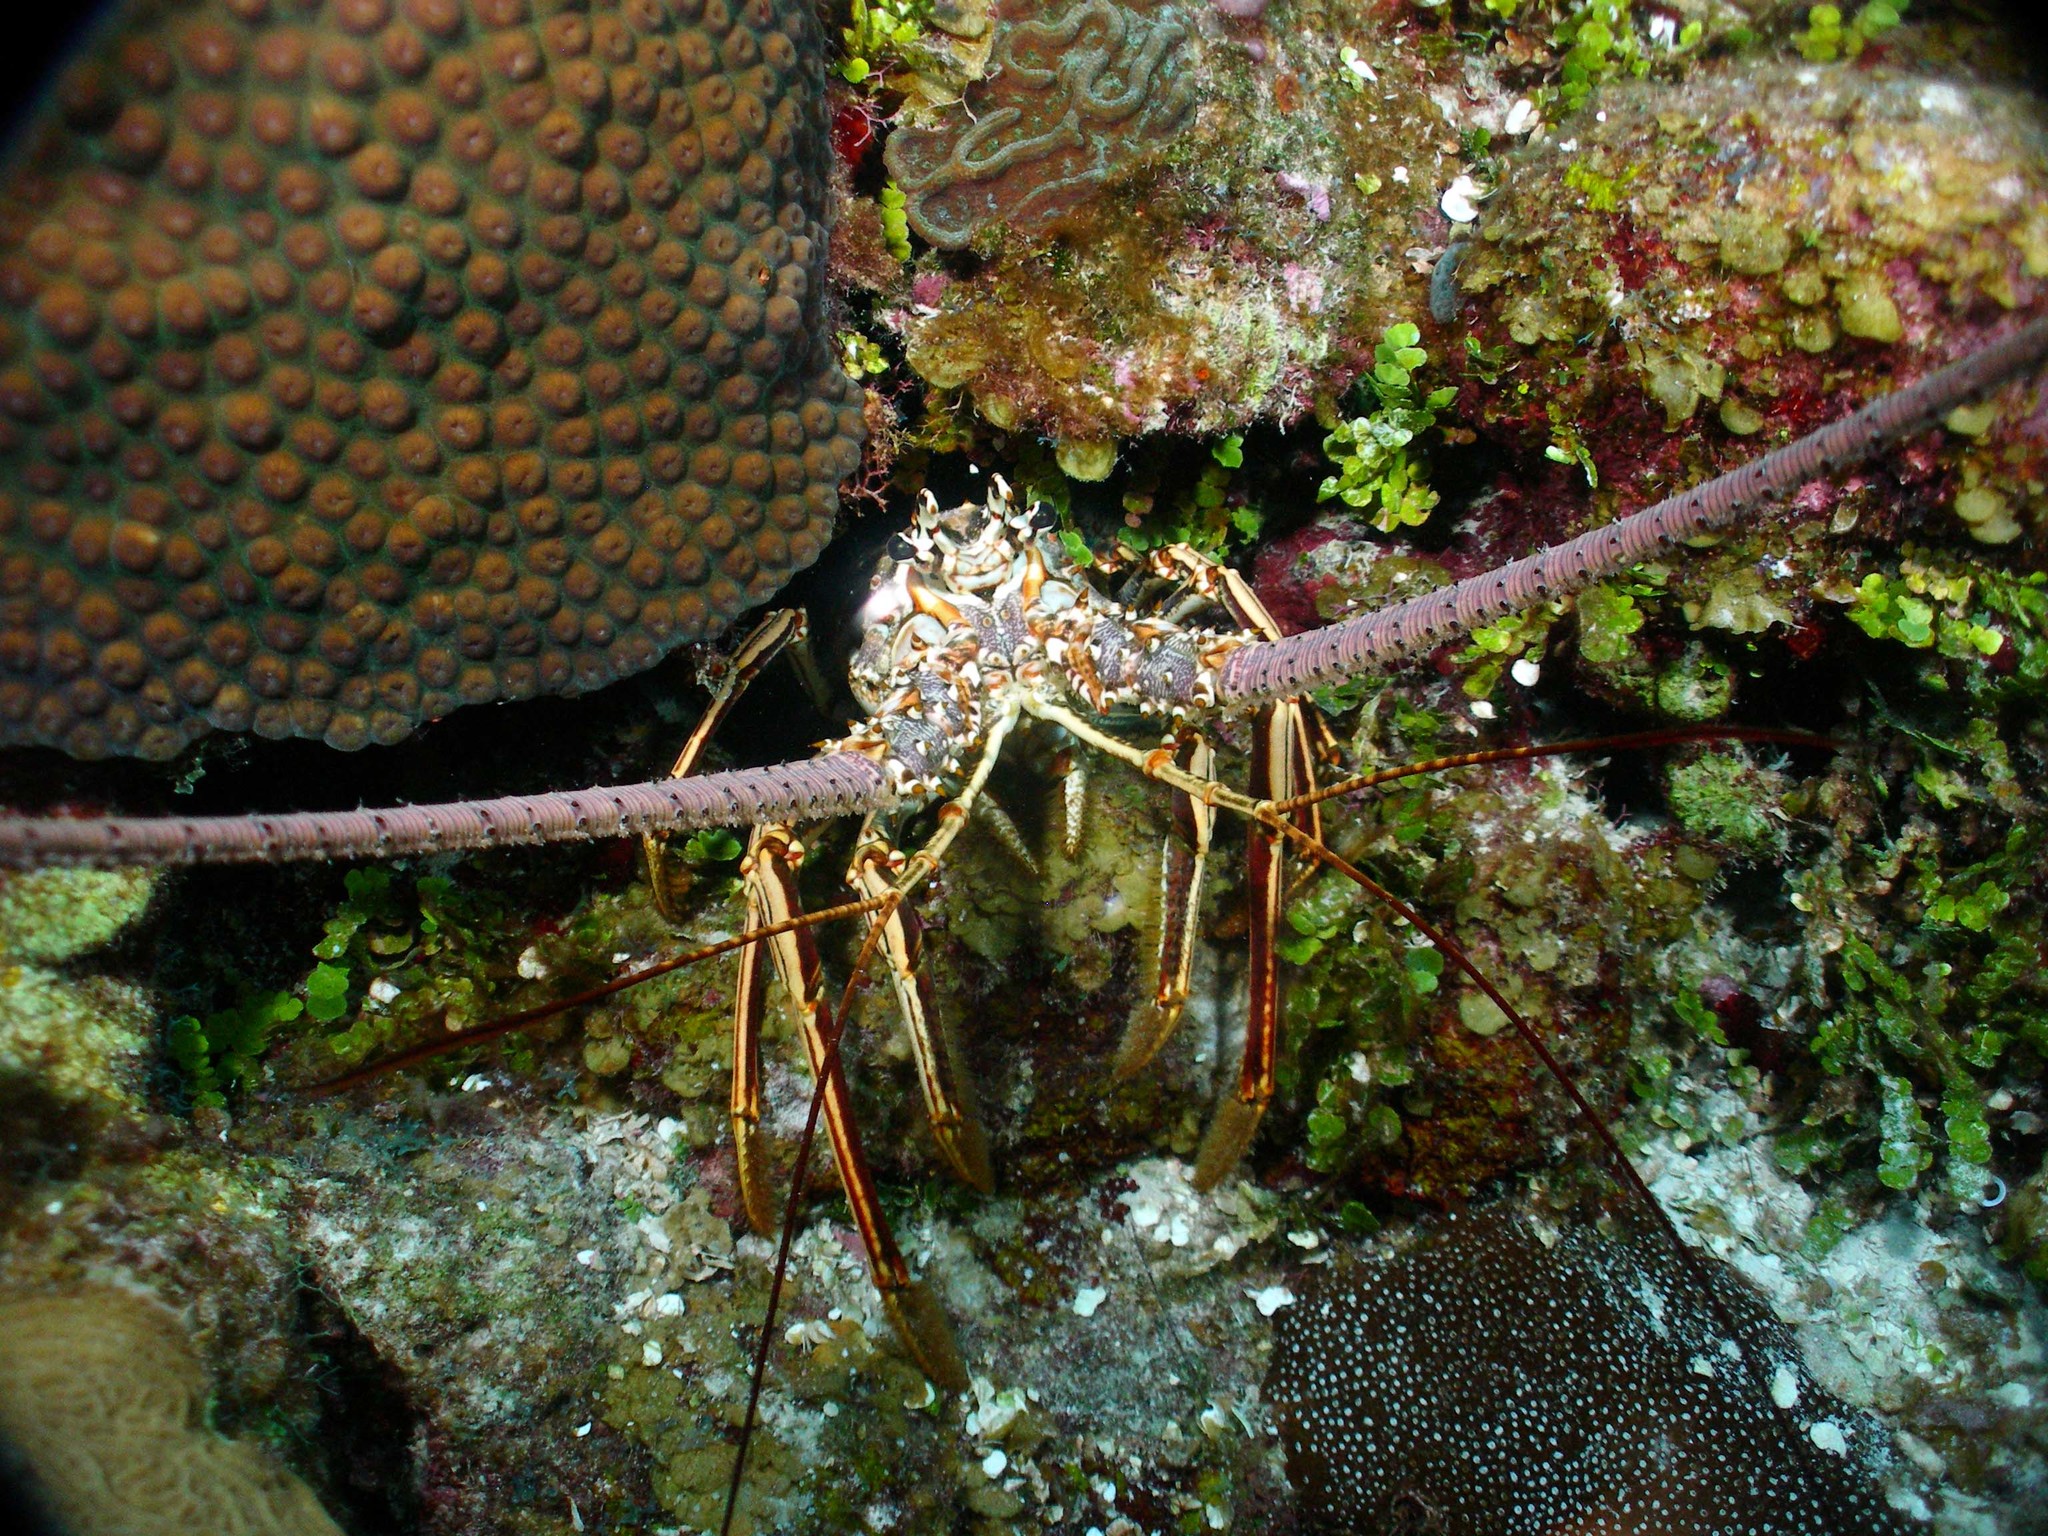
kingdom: Animalia
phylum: Arthropoda
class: Malacostraca
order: Decapoda
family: Palinuridae
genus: Panulirus
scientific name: Panulirus argus
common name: Caribbean spiny lobster
